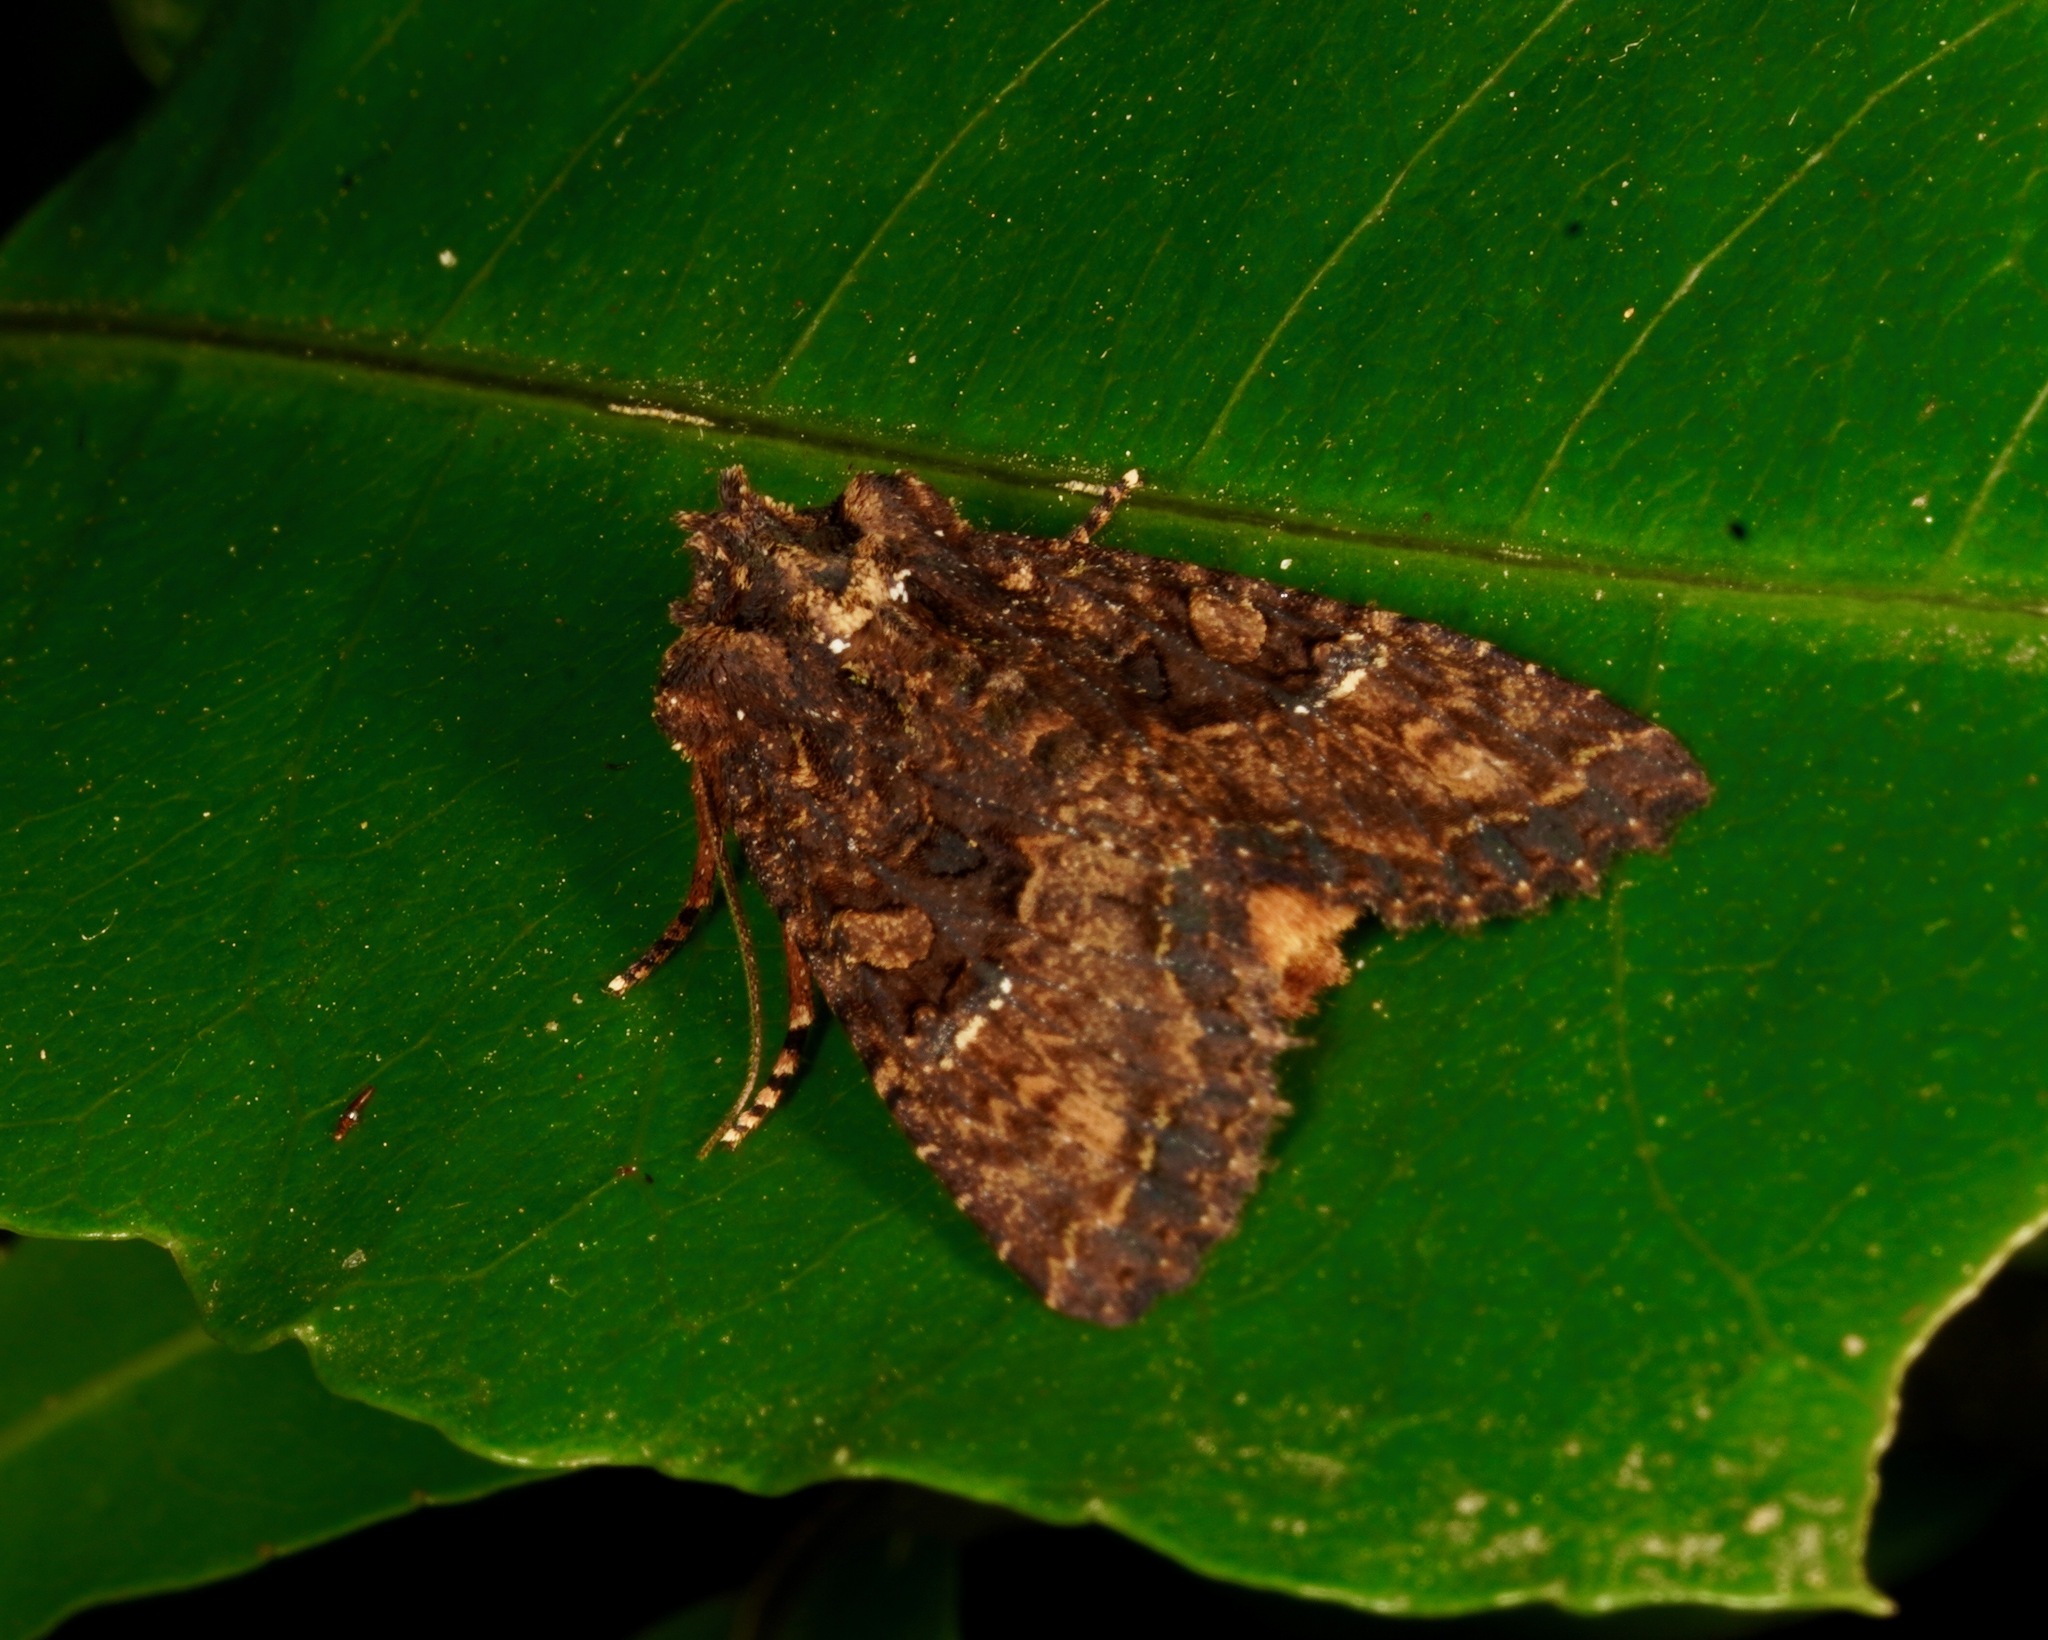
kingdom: Animalia
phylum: Arthropoda
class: Insecta
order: Lepidoptera
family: Noctuidae
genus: Meterana
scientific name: Meterana ochthistis
